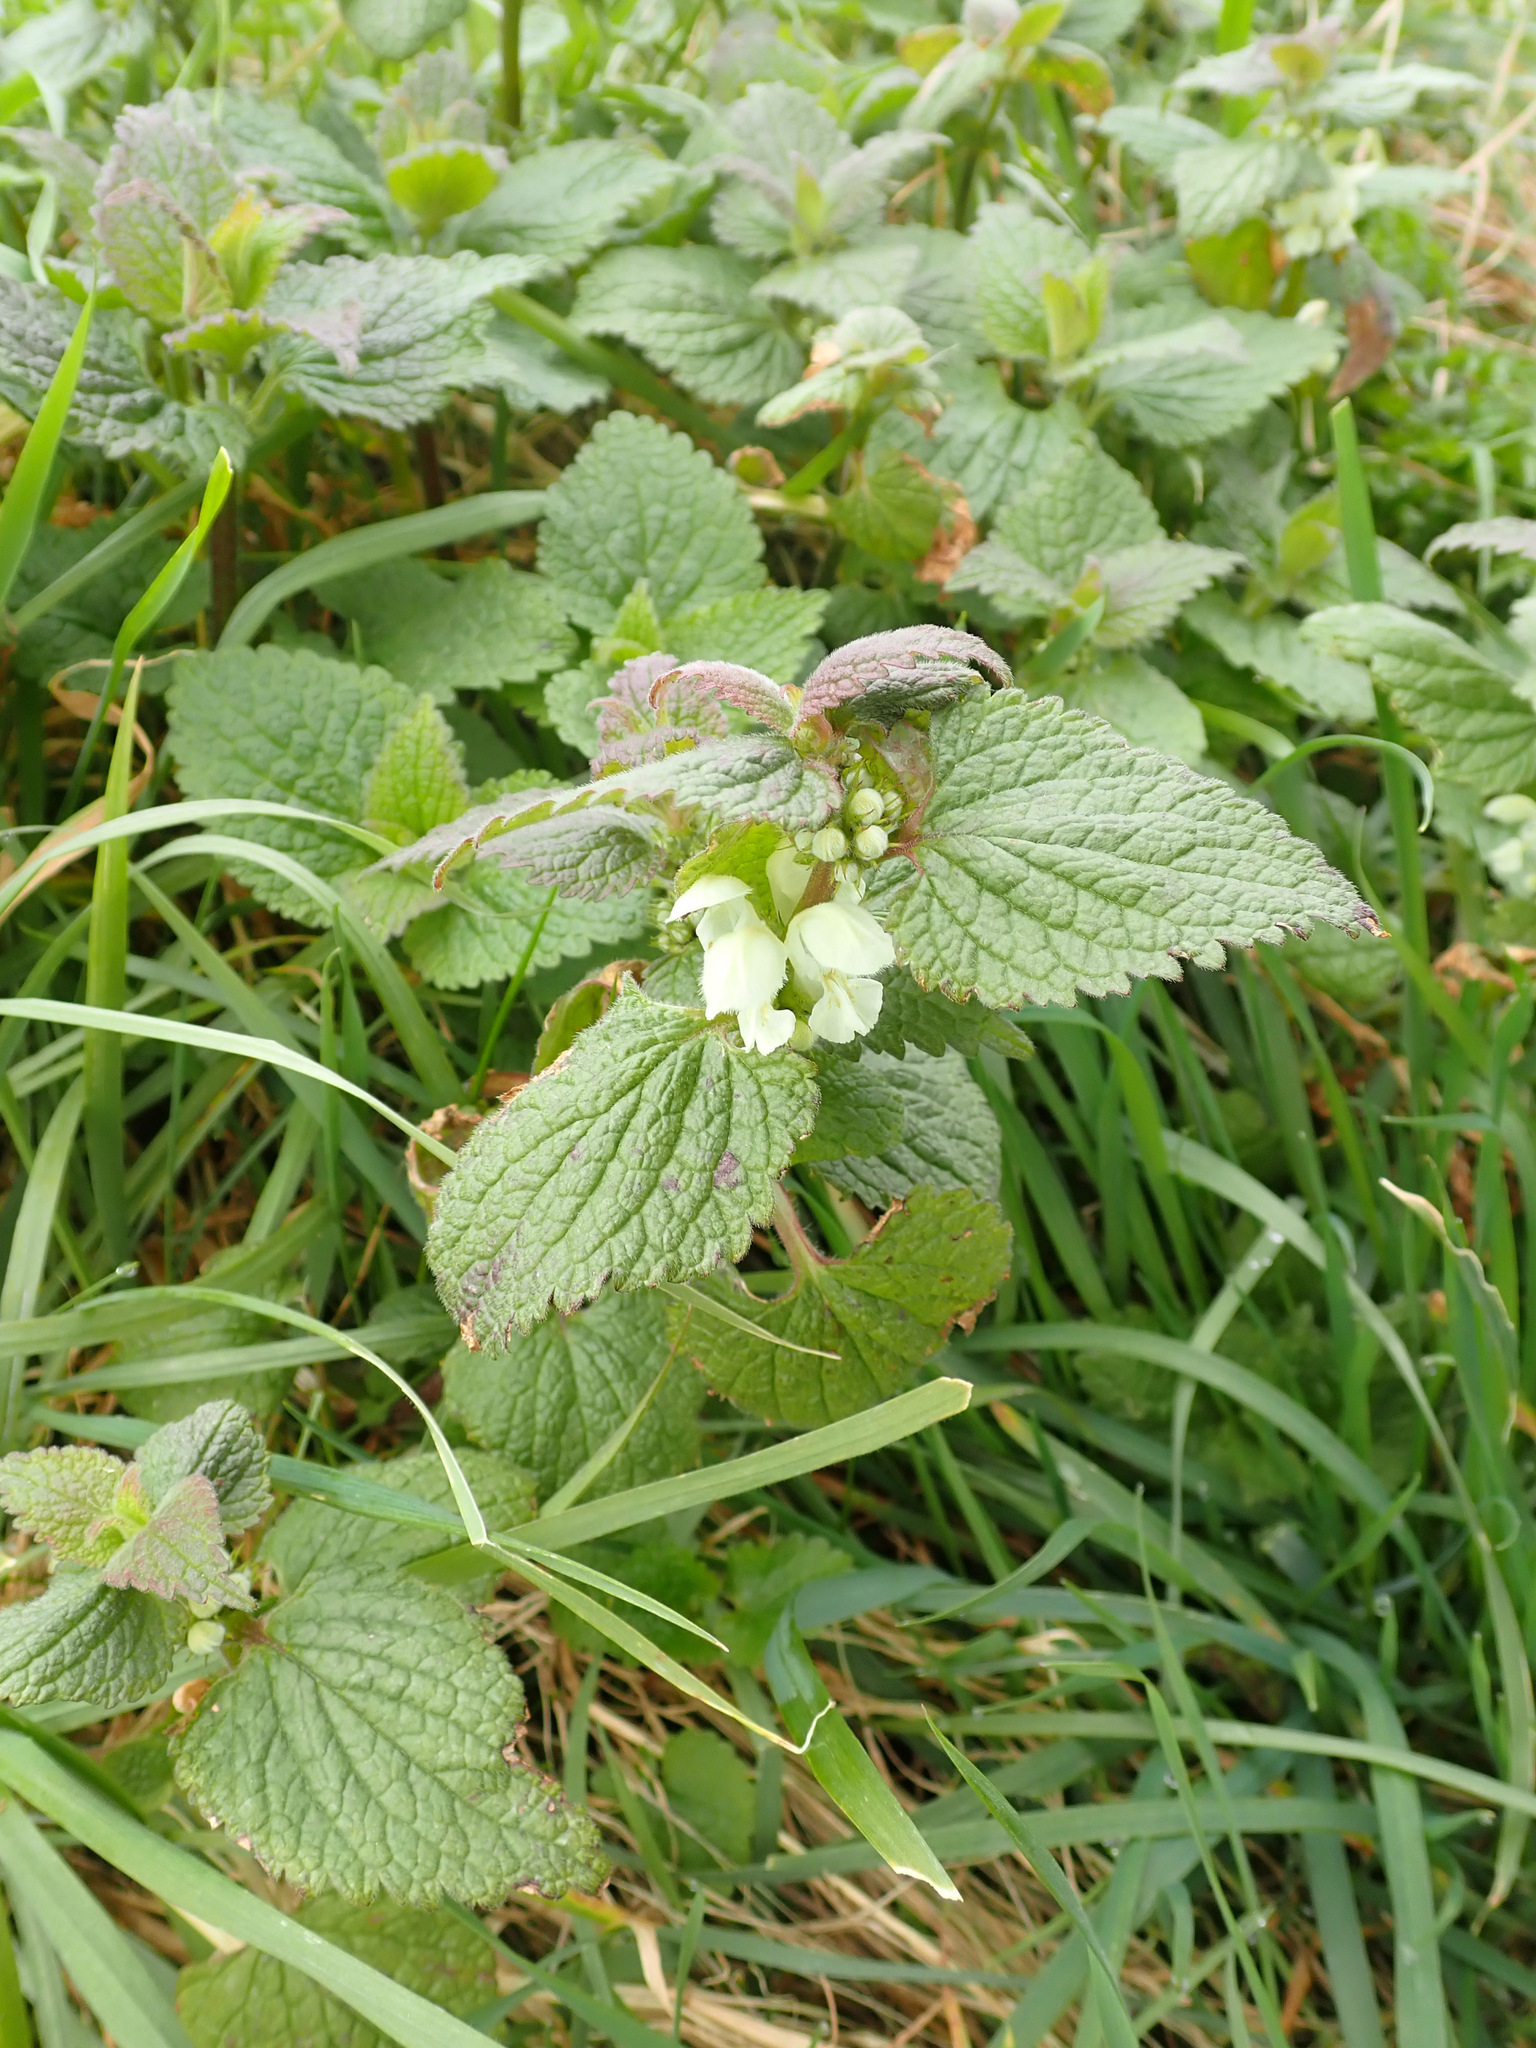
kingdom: Plantae
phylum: Tracheophyta
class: Magnoliopsida
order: Lamiales
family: Lamiaceae
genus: Lamium
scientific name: Lamium album
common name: White dead-nettle
